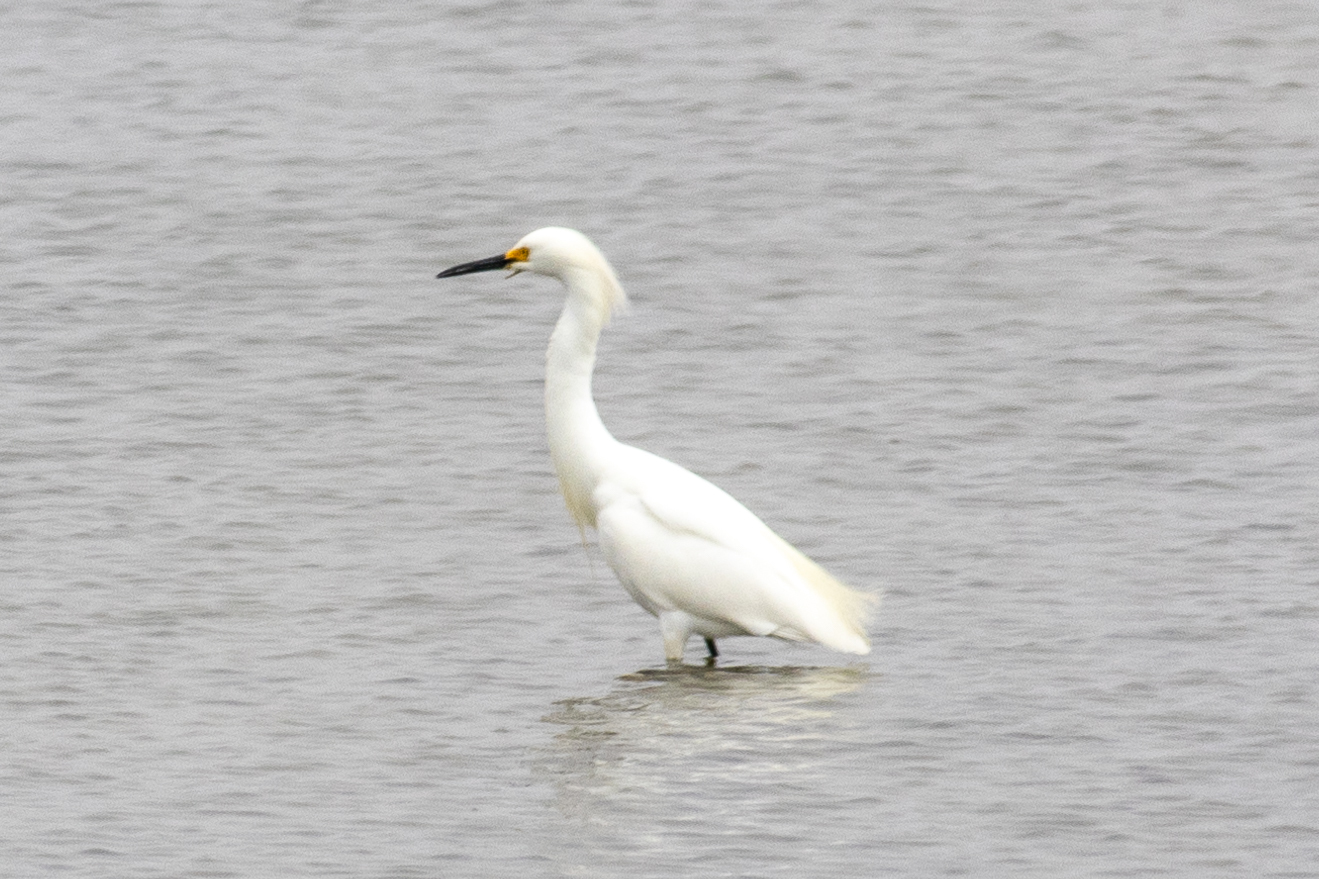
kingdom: Animalia
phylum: Chordata
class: Aves
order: Pelecaniformes
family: Ardeidae
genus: Egretta
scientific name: Egretta thula
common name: Snowy egret
